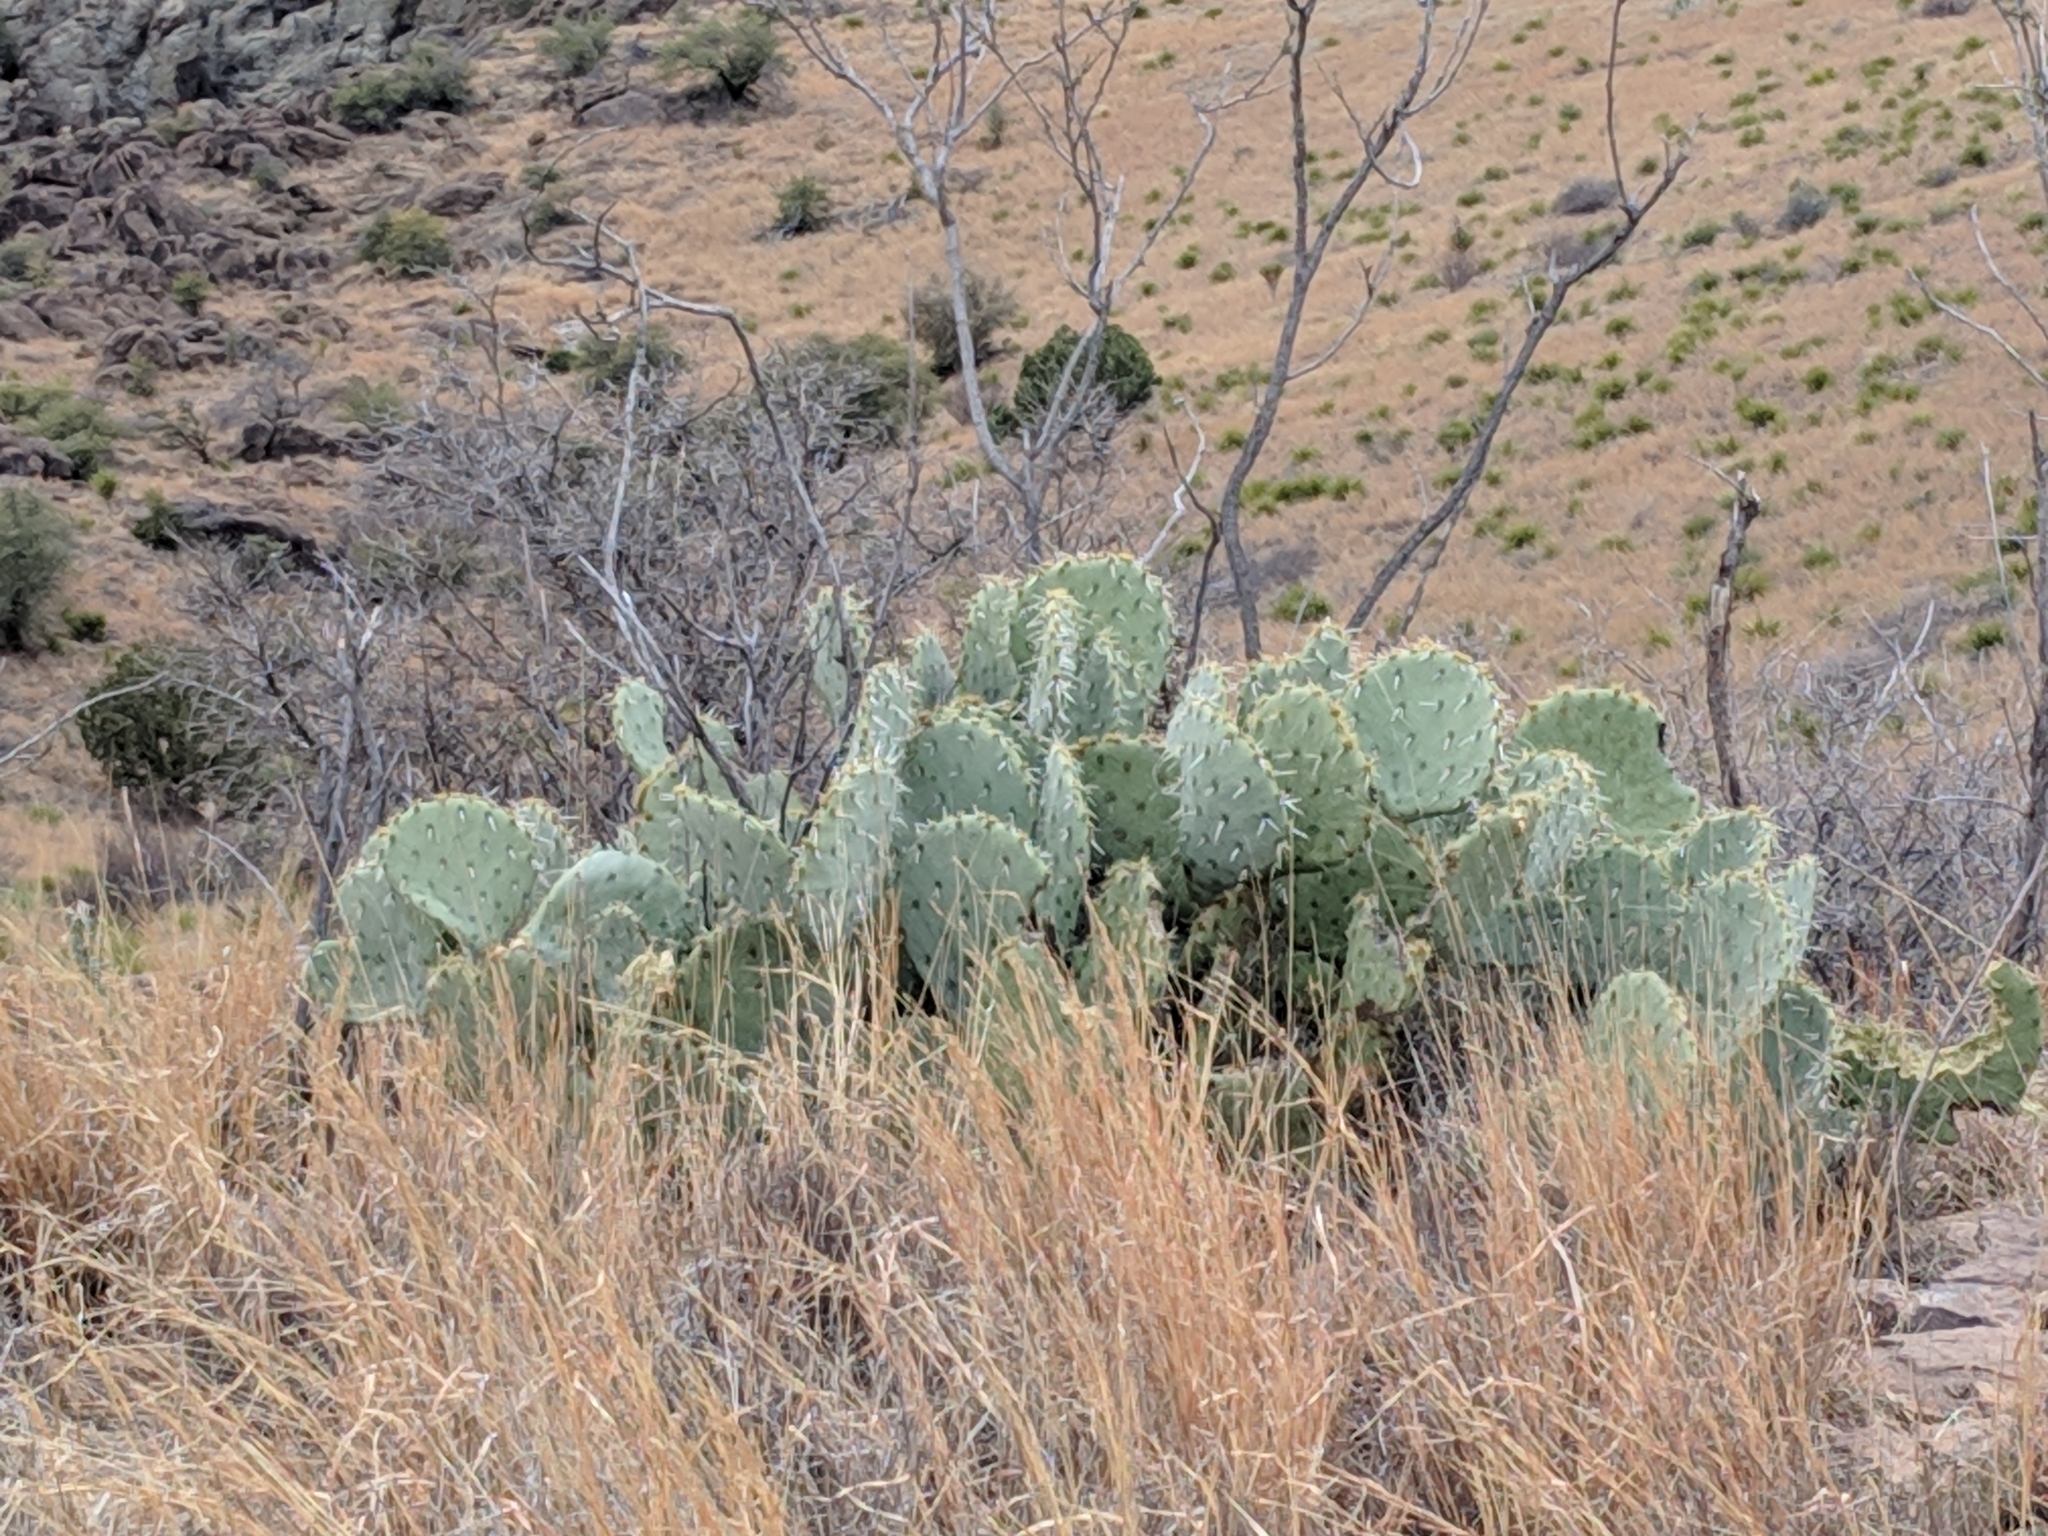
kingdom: Plantae
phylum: Tracheophyta
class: Magnoliopsida
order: Caryophyllales
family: Cactaceae
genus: Opuntia
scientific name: Opuntia engelmannii
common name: Cactus-apple
